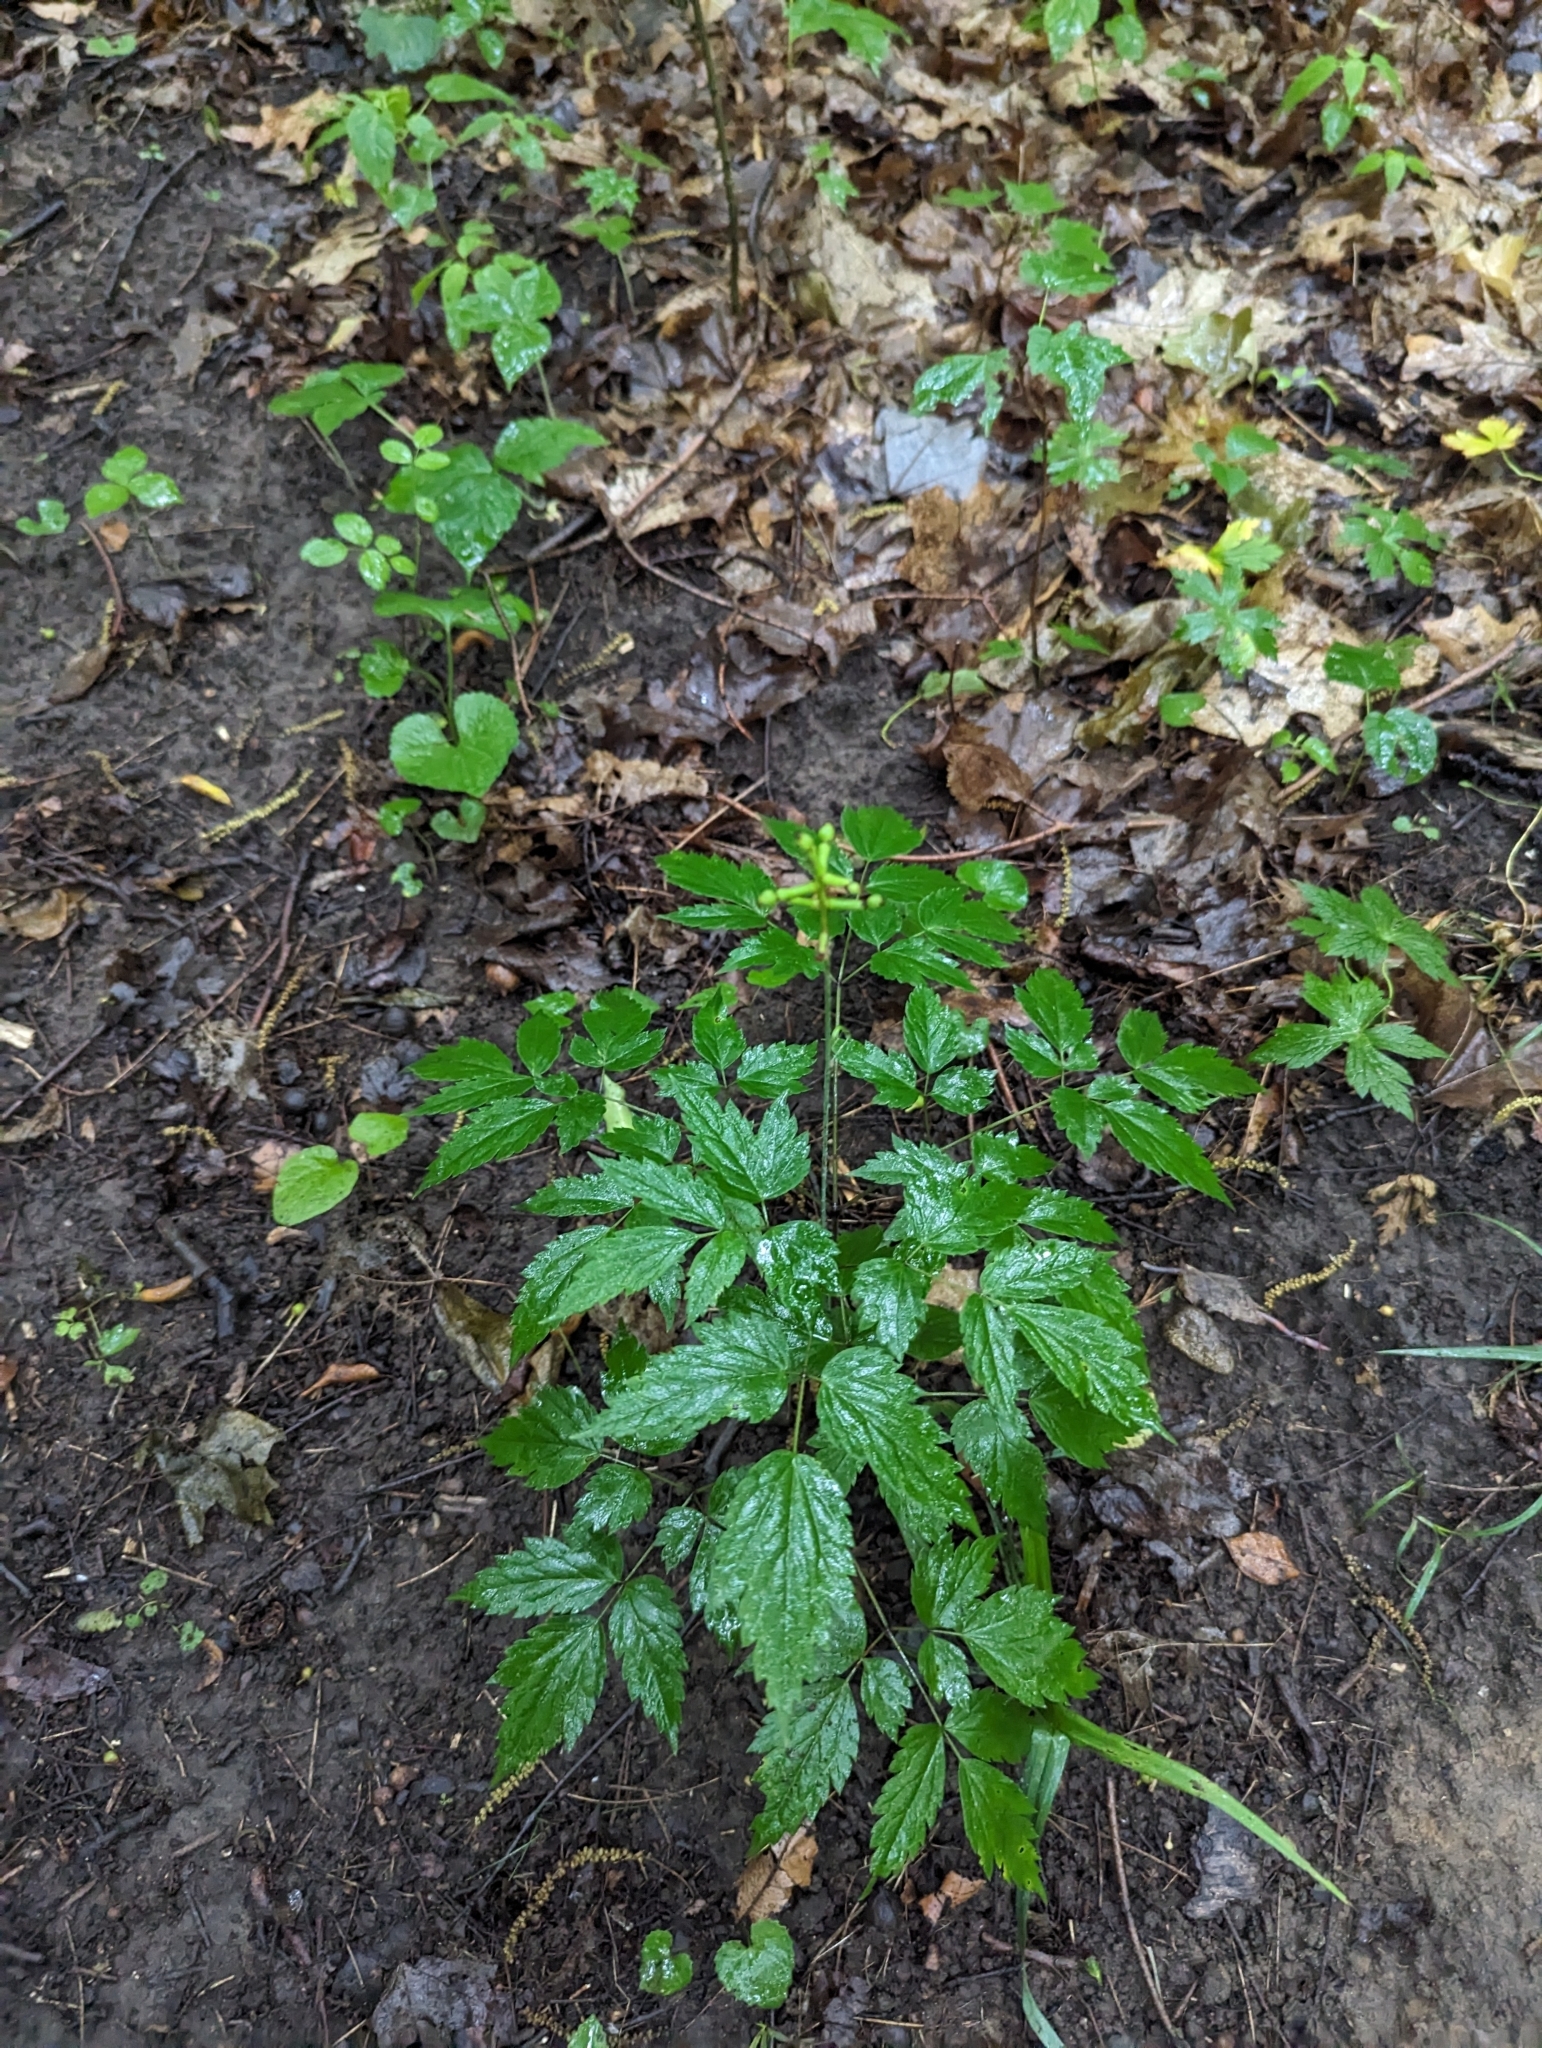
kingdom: Plantae
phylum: Tracheophyta
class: Magnoliopsida
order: Ranunculales
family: Ranunculaceae
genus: Actaea
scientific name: Actaea pachypoda
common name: Doll's-eyes
